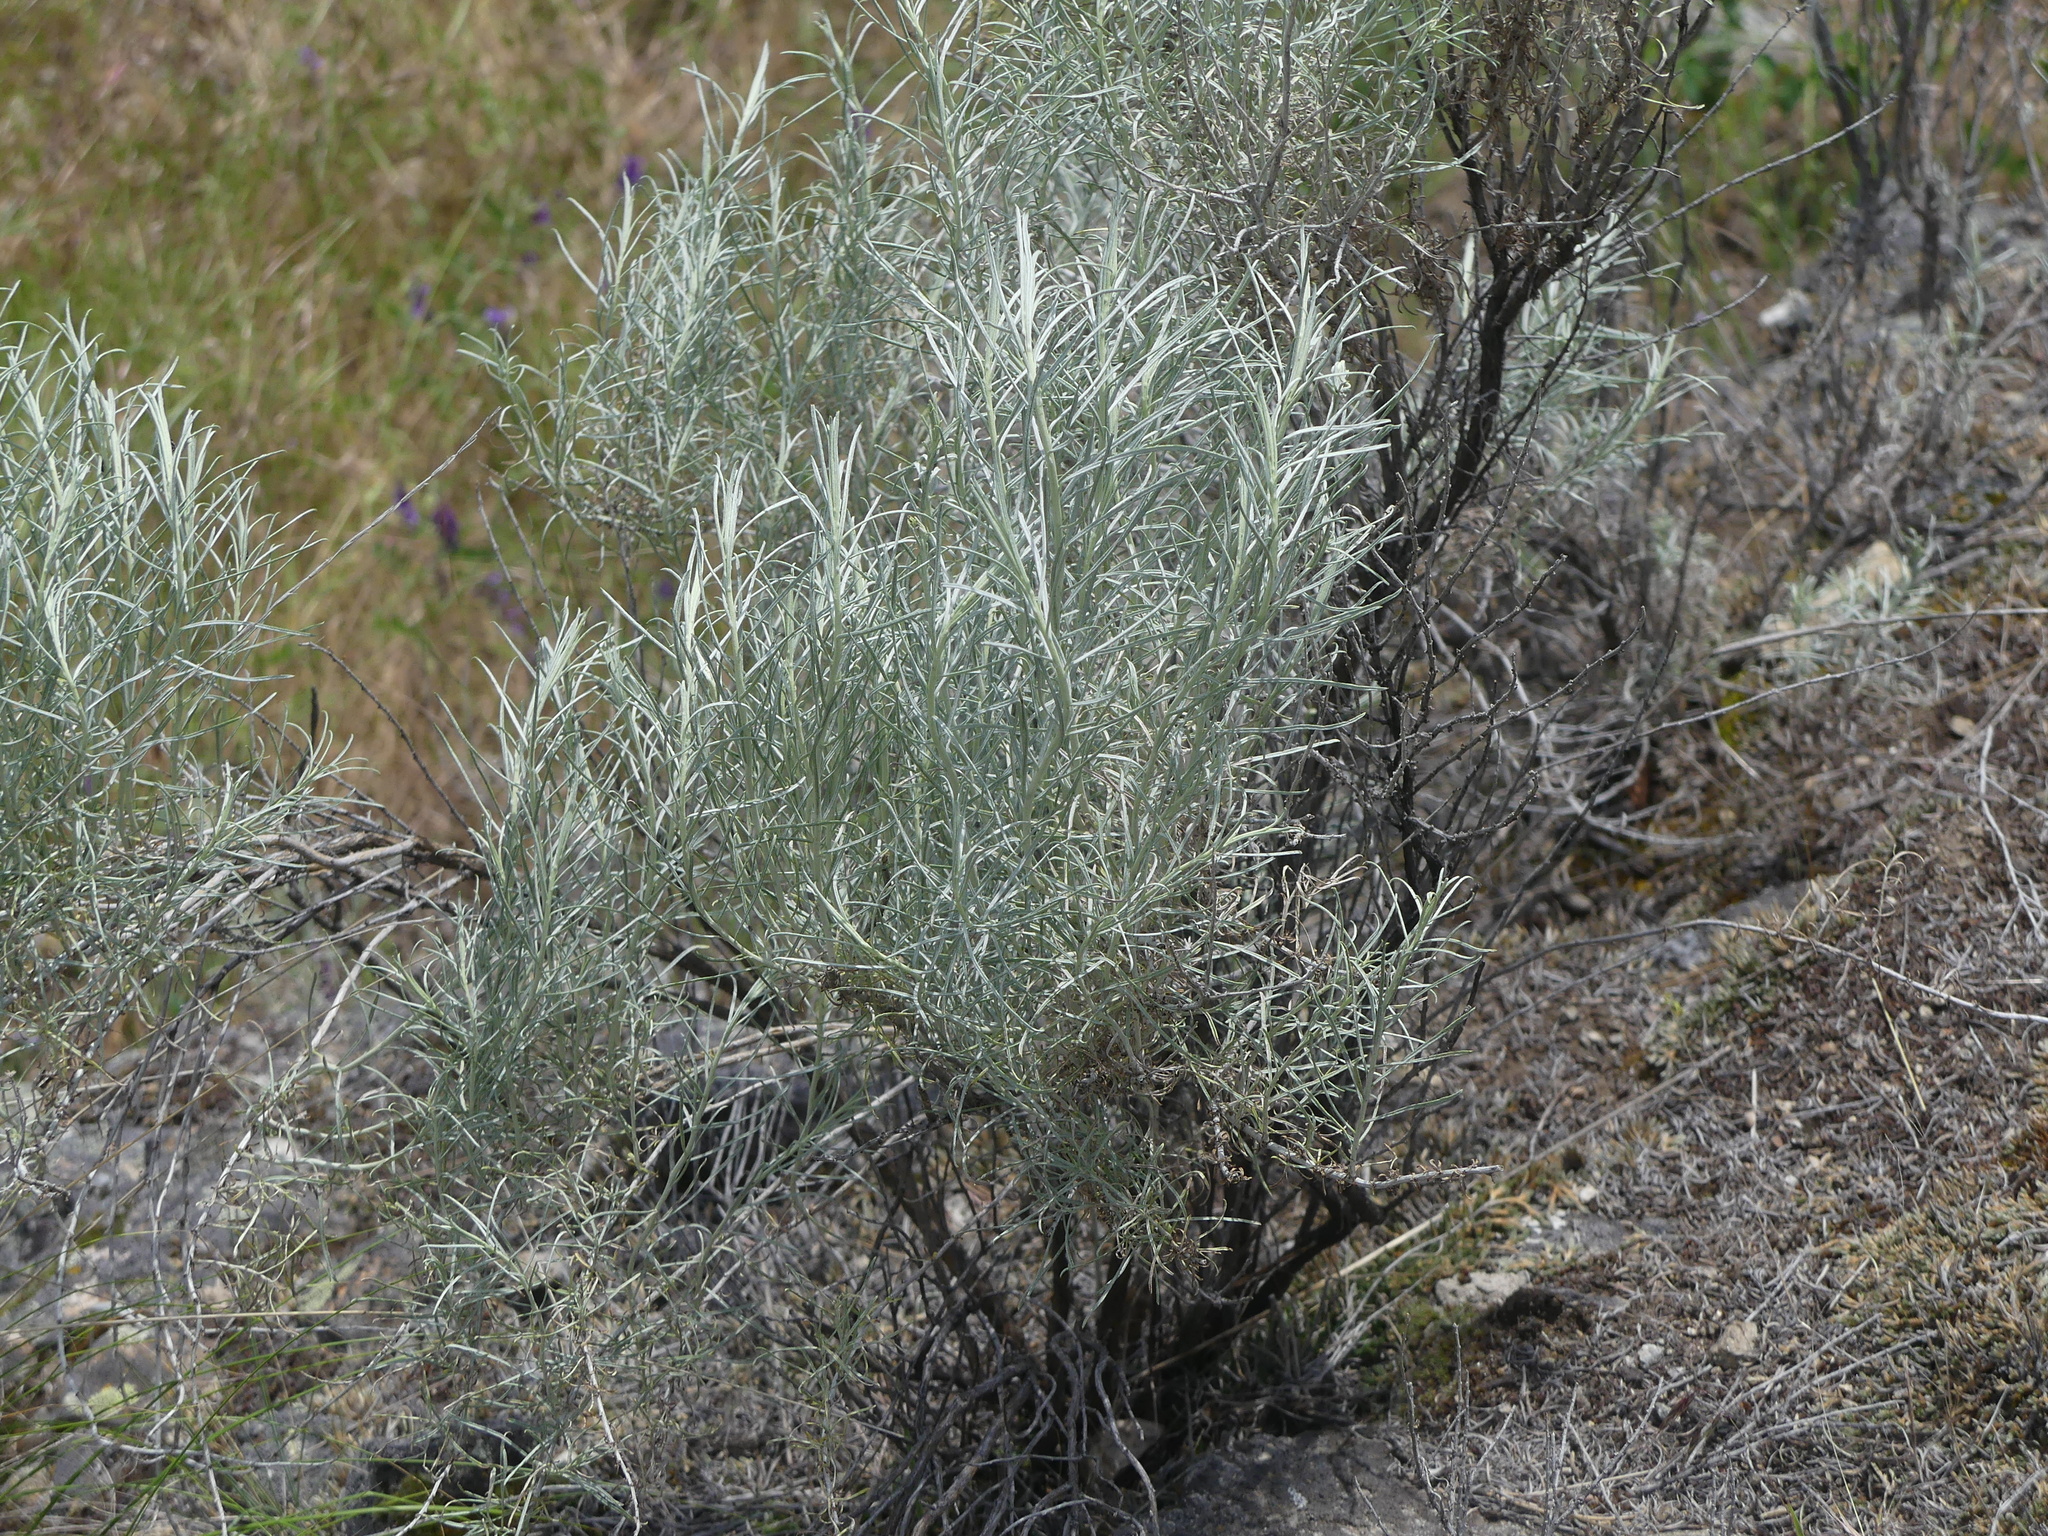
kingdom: Plantae
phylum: Tracheophyta
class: Magnoliopsida
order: Asterales
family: Asteraceae
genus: Ericameria
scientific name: Ericameria nauseosa
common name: Rubber rabbitbrush
